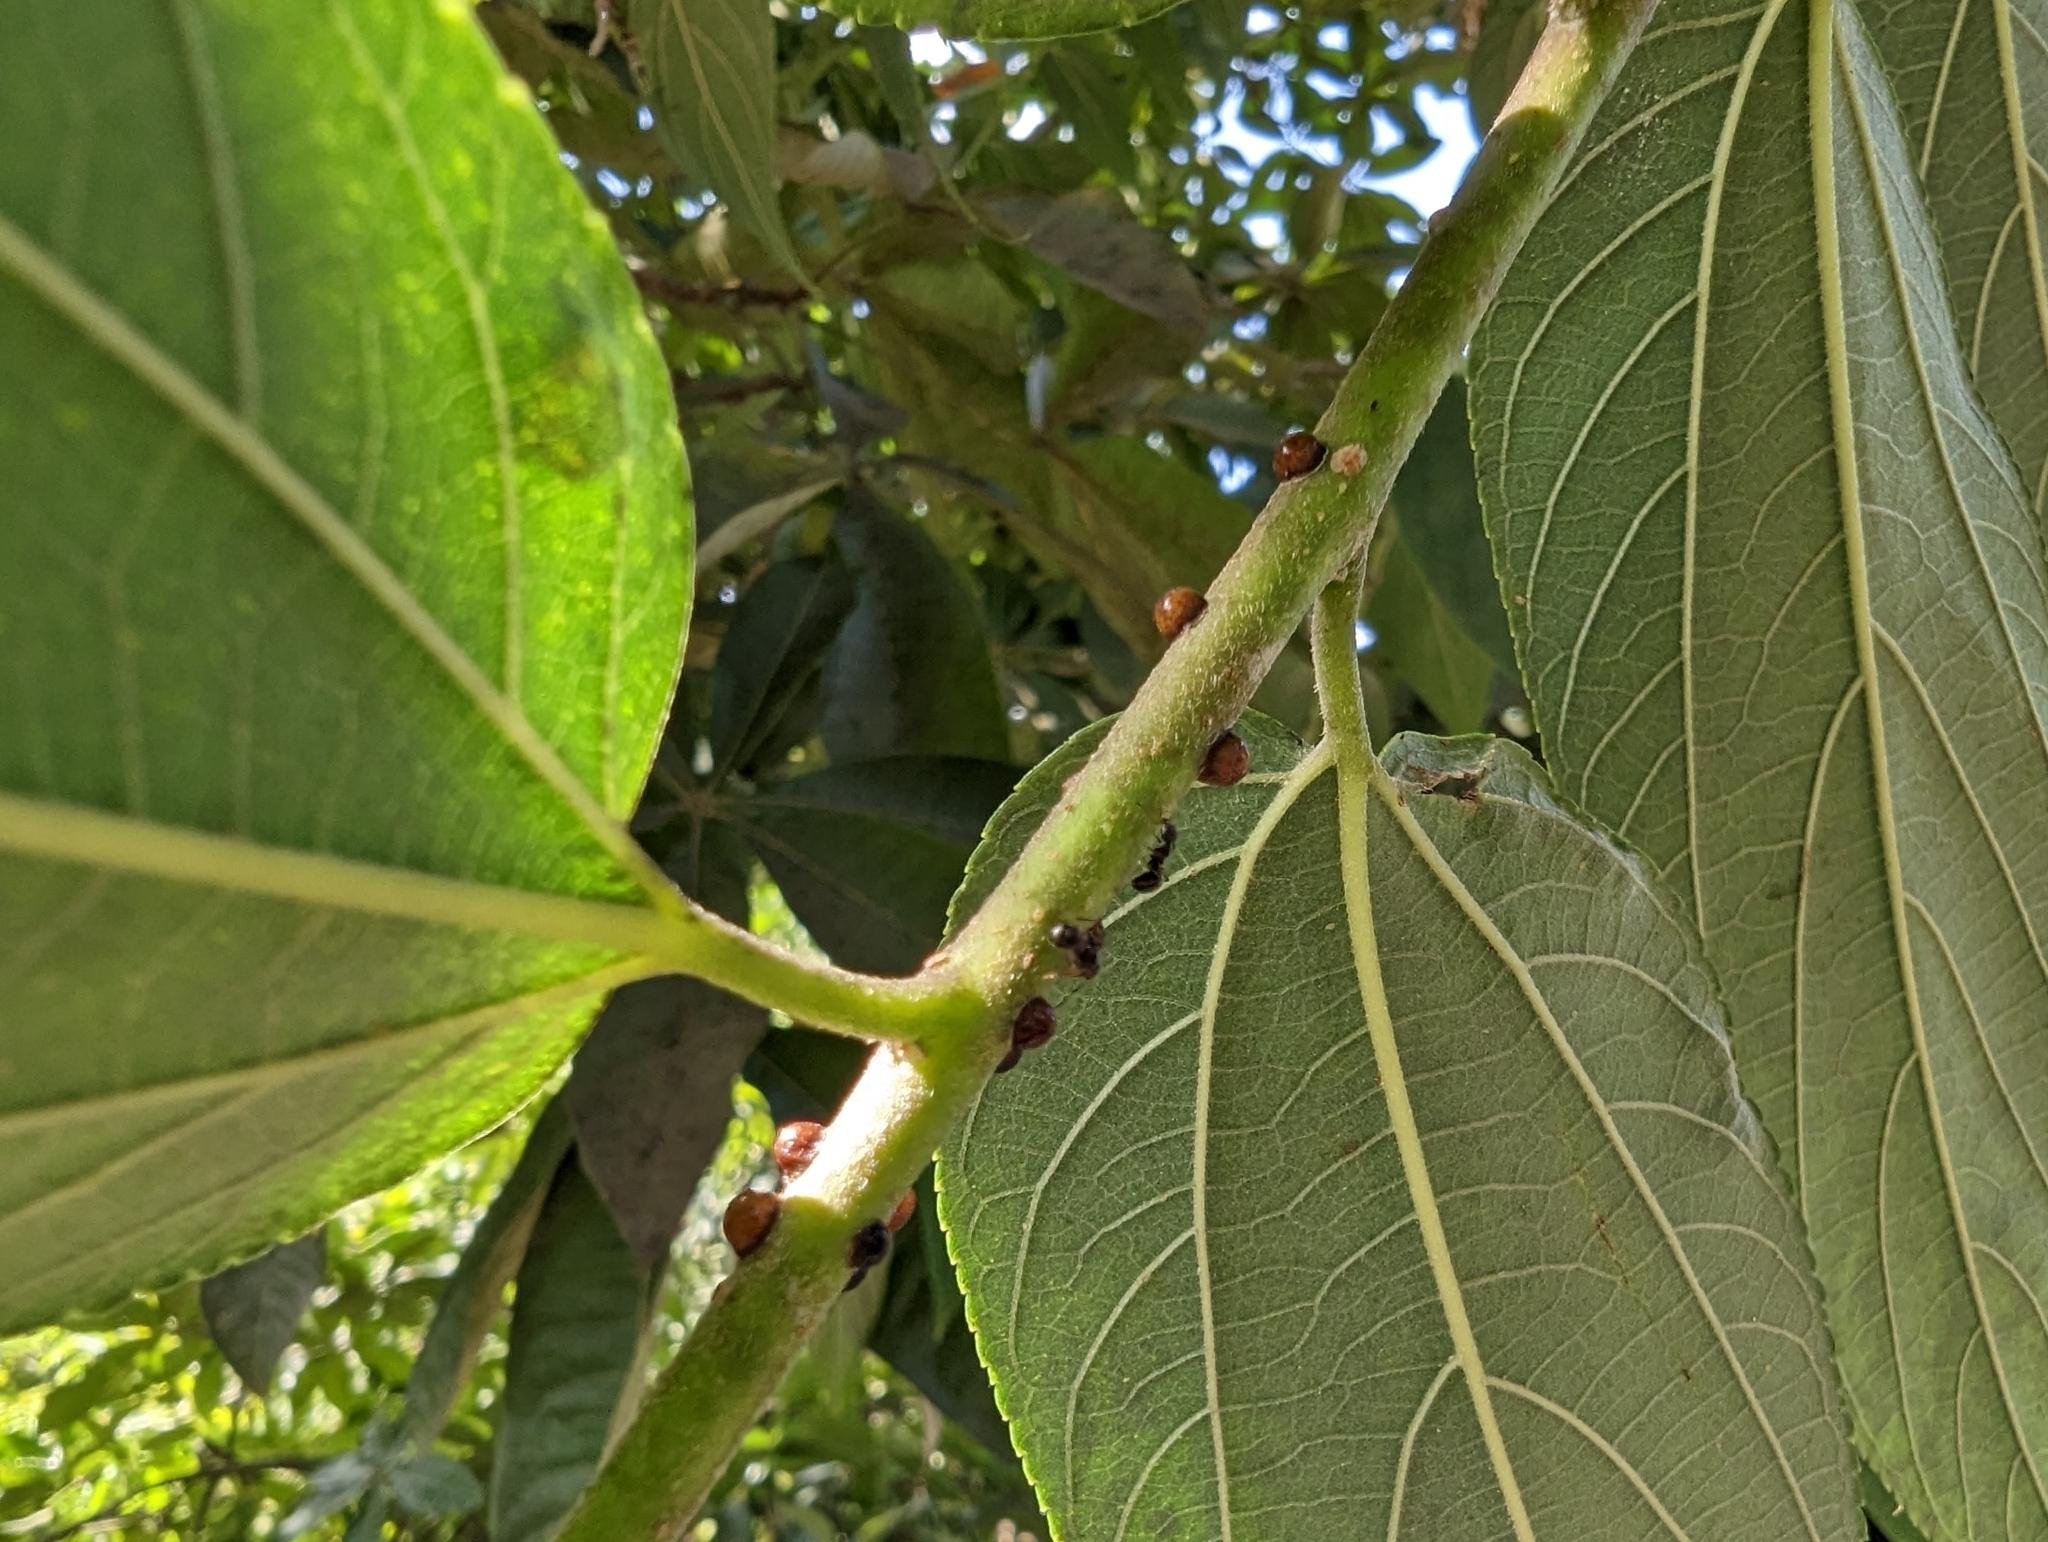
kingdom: Plantae
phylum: Tracheophyta
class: Magnoliopsida
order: Rosales
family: Cannabaceae
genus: Trema
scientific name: Trema tomentosum
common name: Peach-leaf-poisonbush
